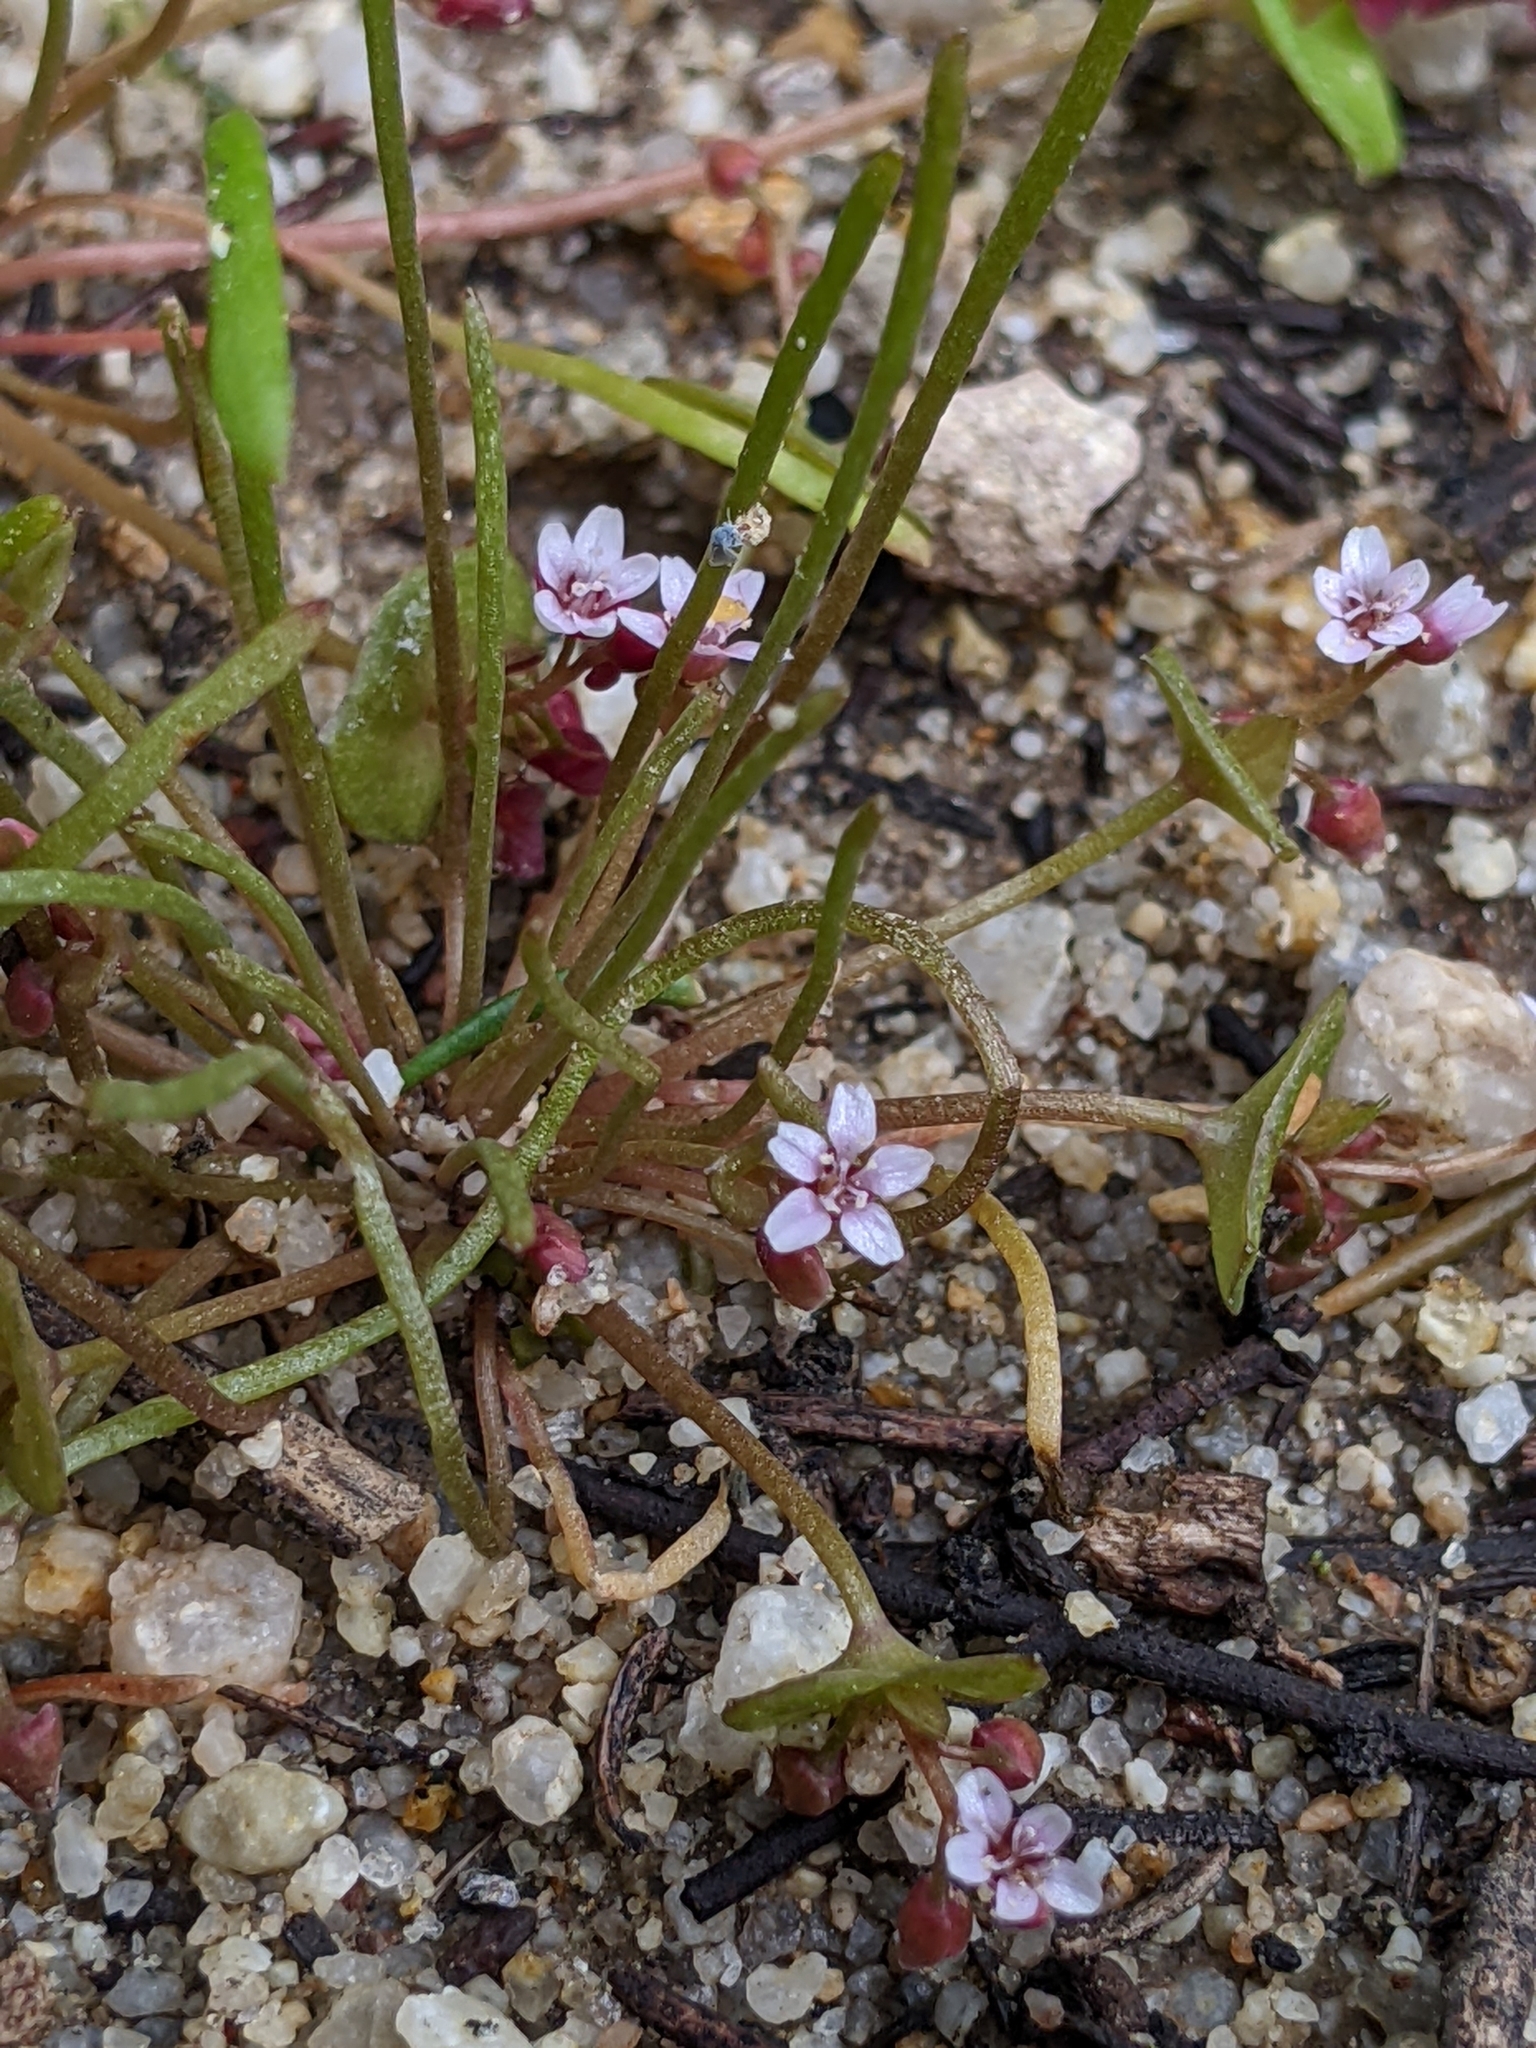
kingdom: Plantae
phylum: Tracheophyta
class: Magnoliopsida
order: Caryophyllales
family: Montiaceae
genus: Claytonia
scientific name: Claytonia parviflora
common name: Indian-lettuce
